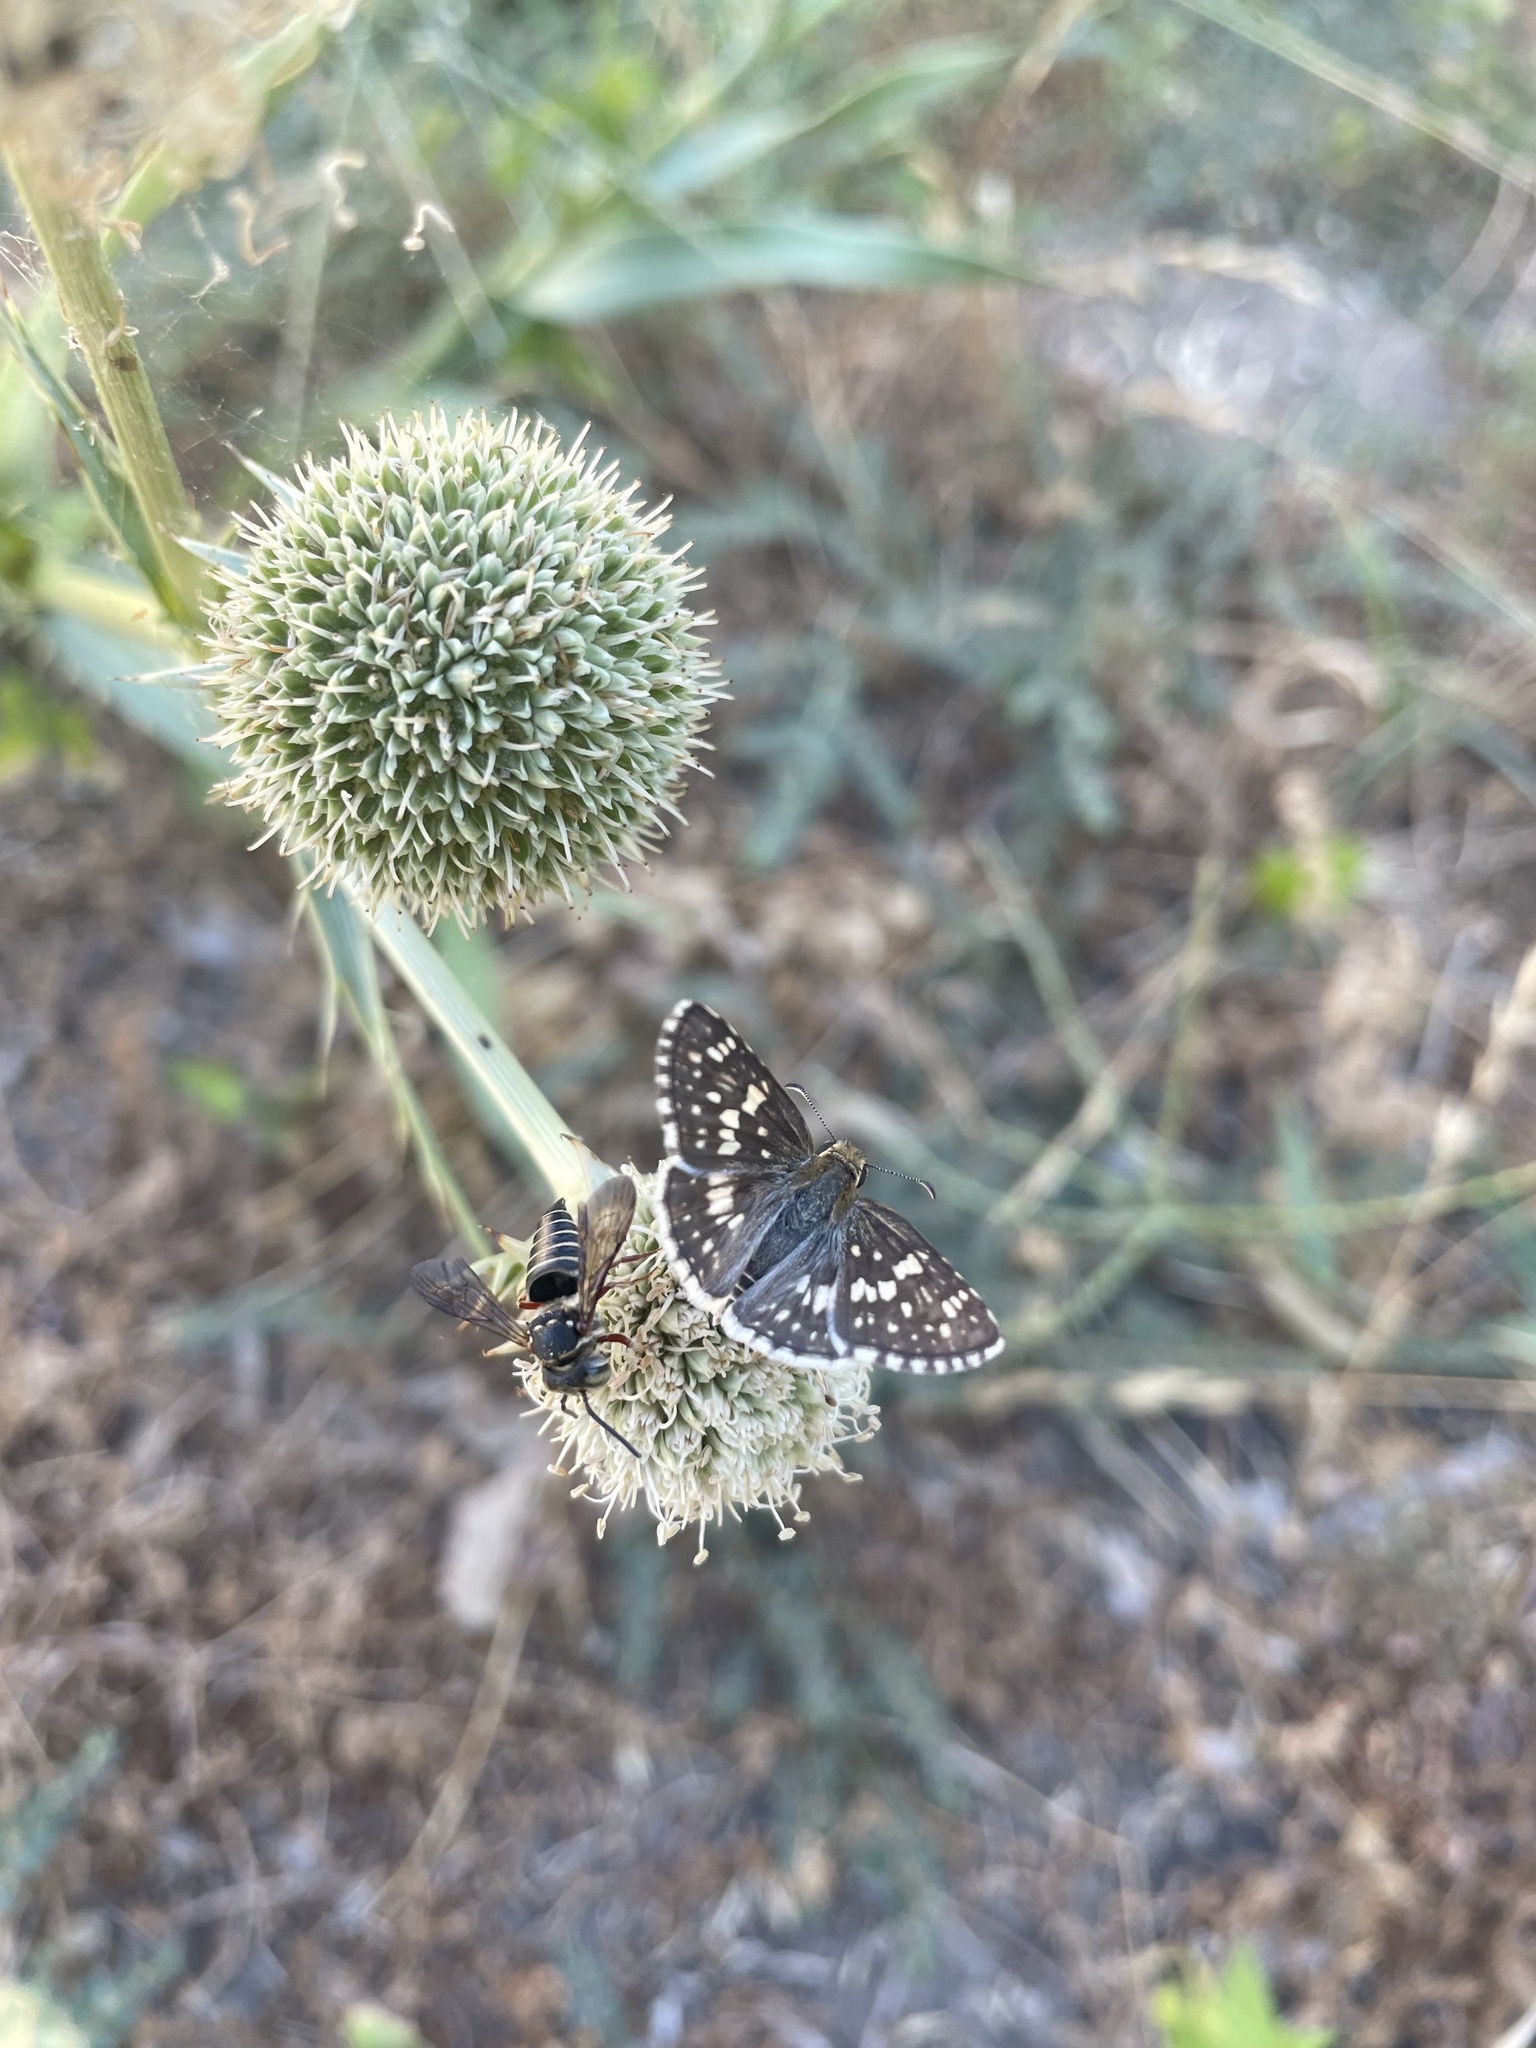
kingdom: Animalia
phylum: Arthropoda
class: Insecta
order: Lepidoptera
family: Hesperiidae
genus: Burnsius
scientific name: Burnsius
